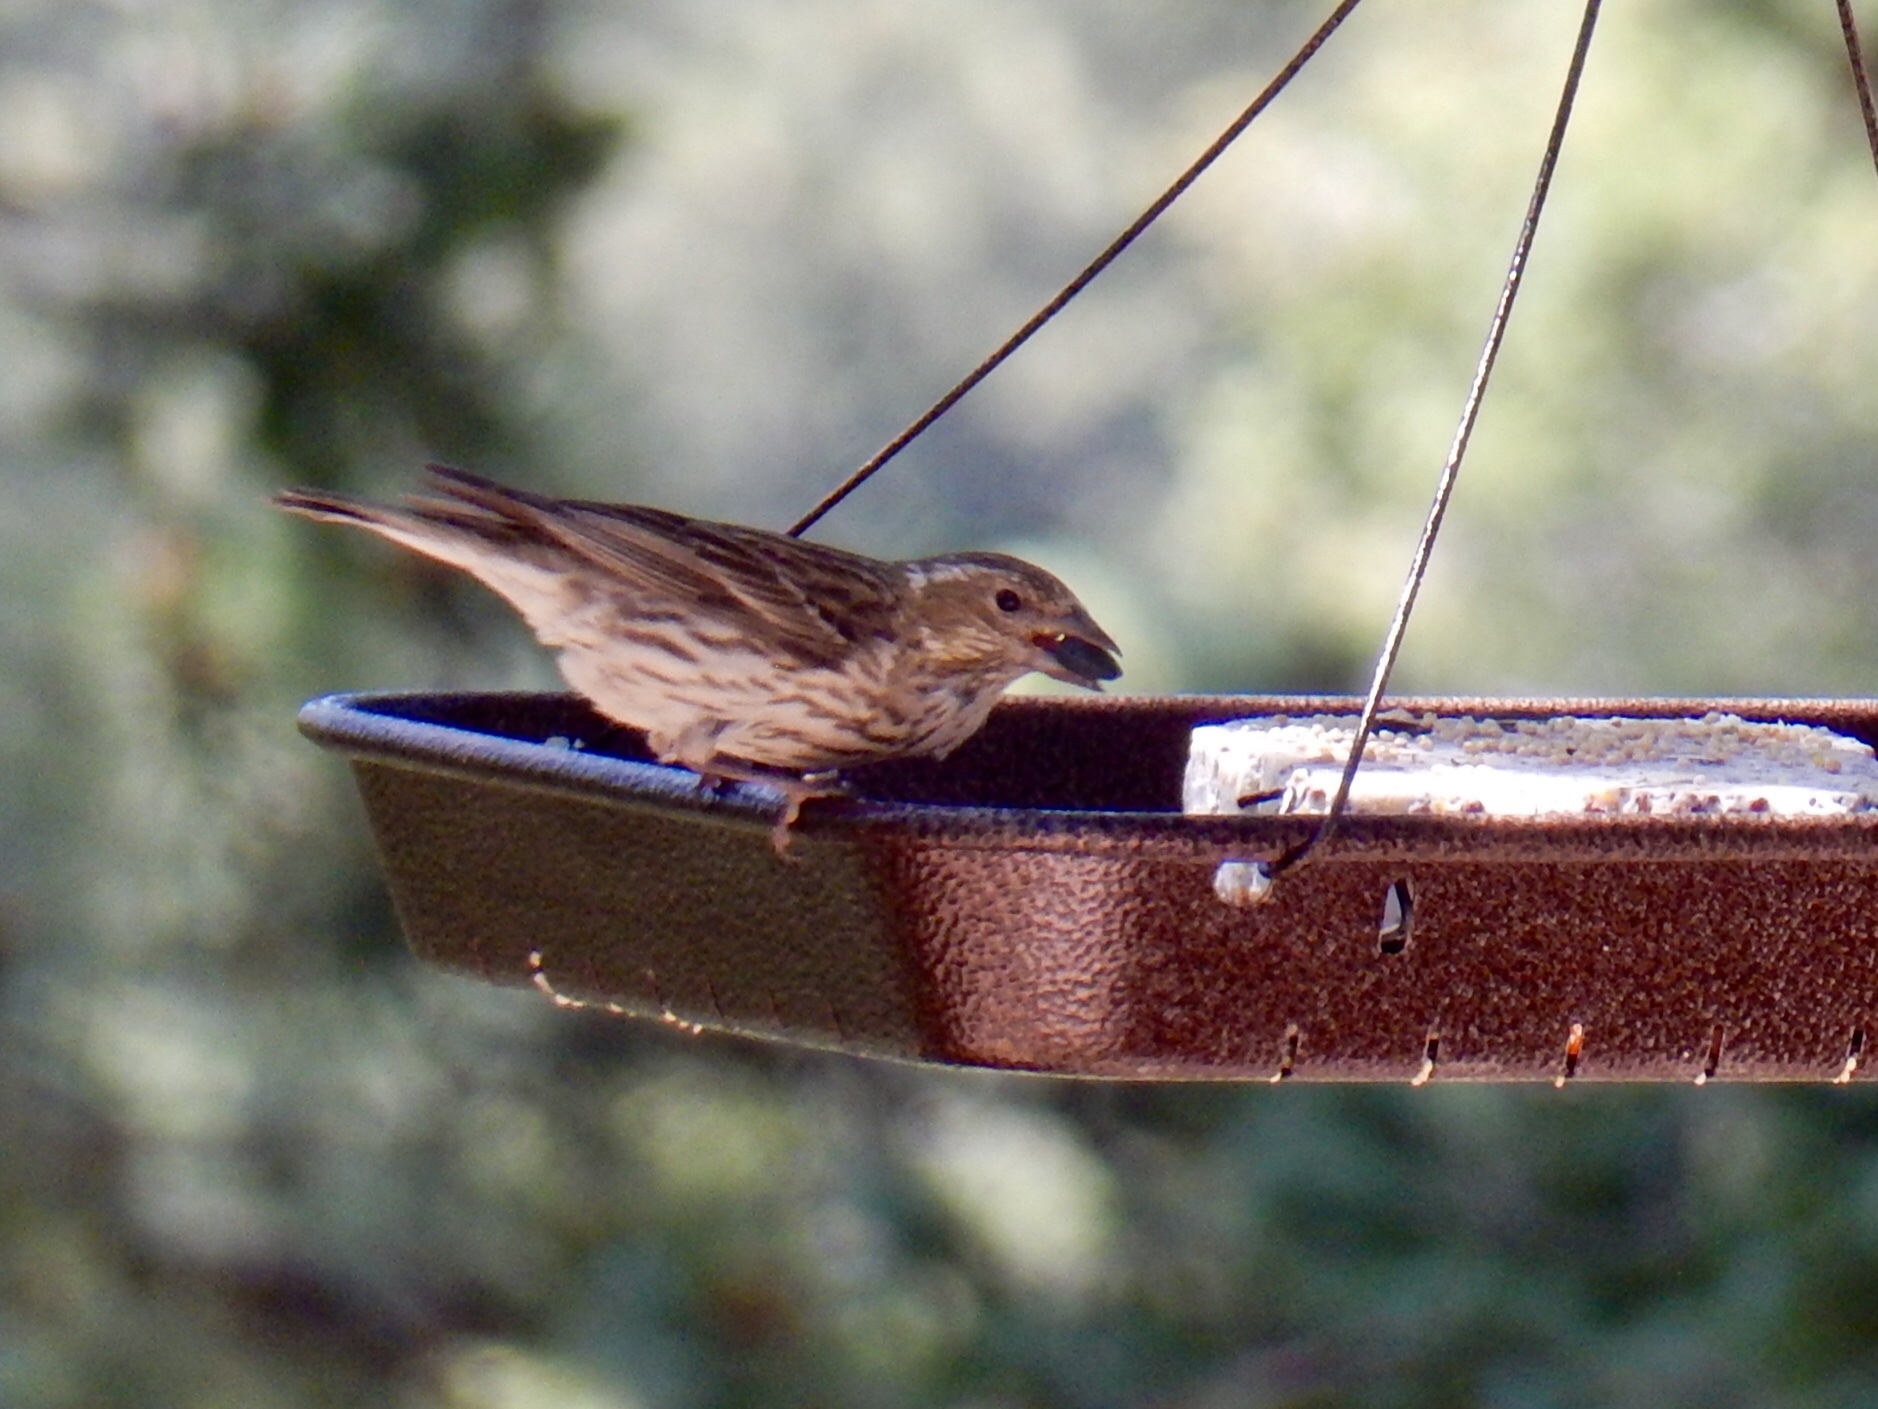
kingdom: Animalia
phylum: Chordata
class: Aves
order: Passeriformes
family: Fringillidae
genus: Haemorhous
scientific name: Haemorhous cassinii
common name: Cassin's finch
